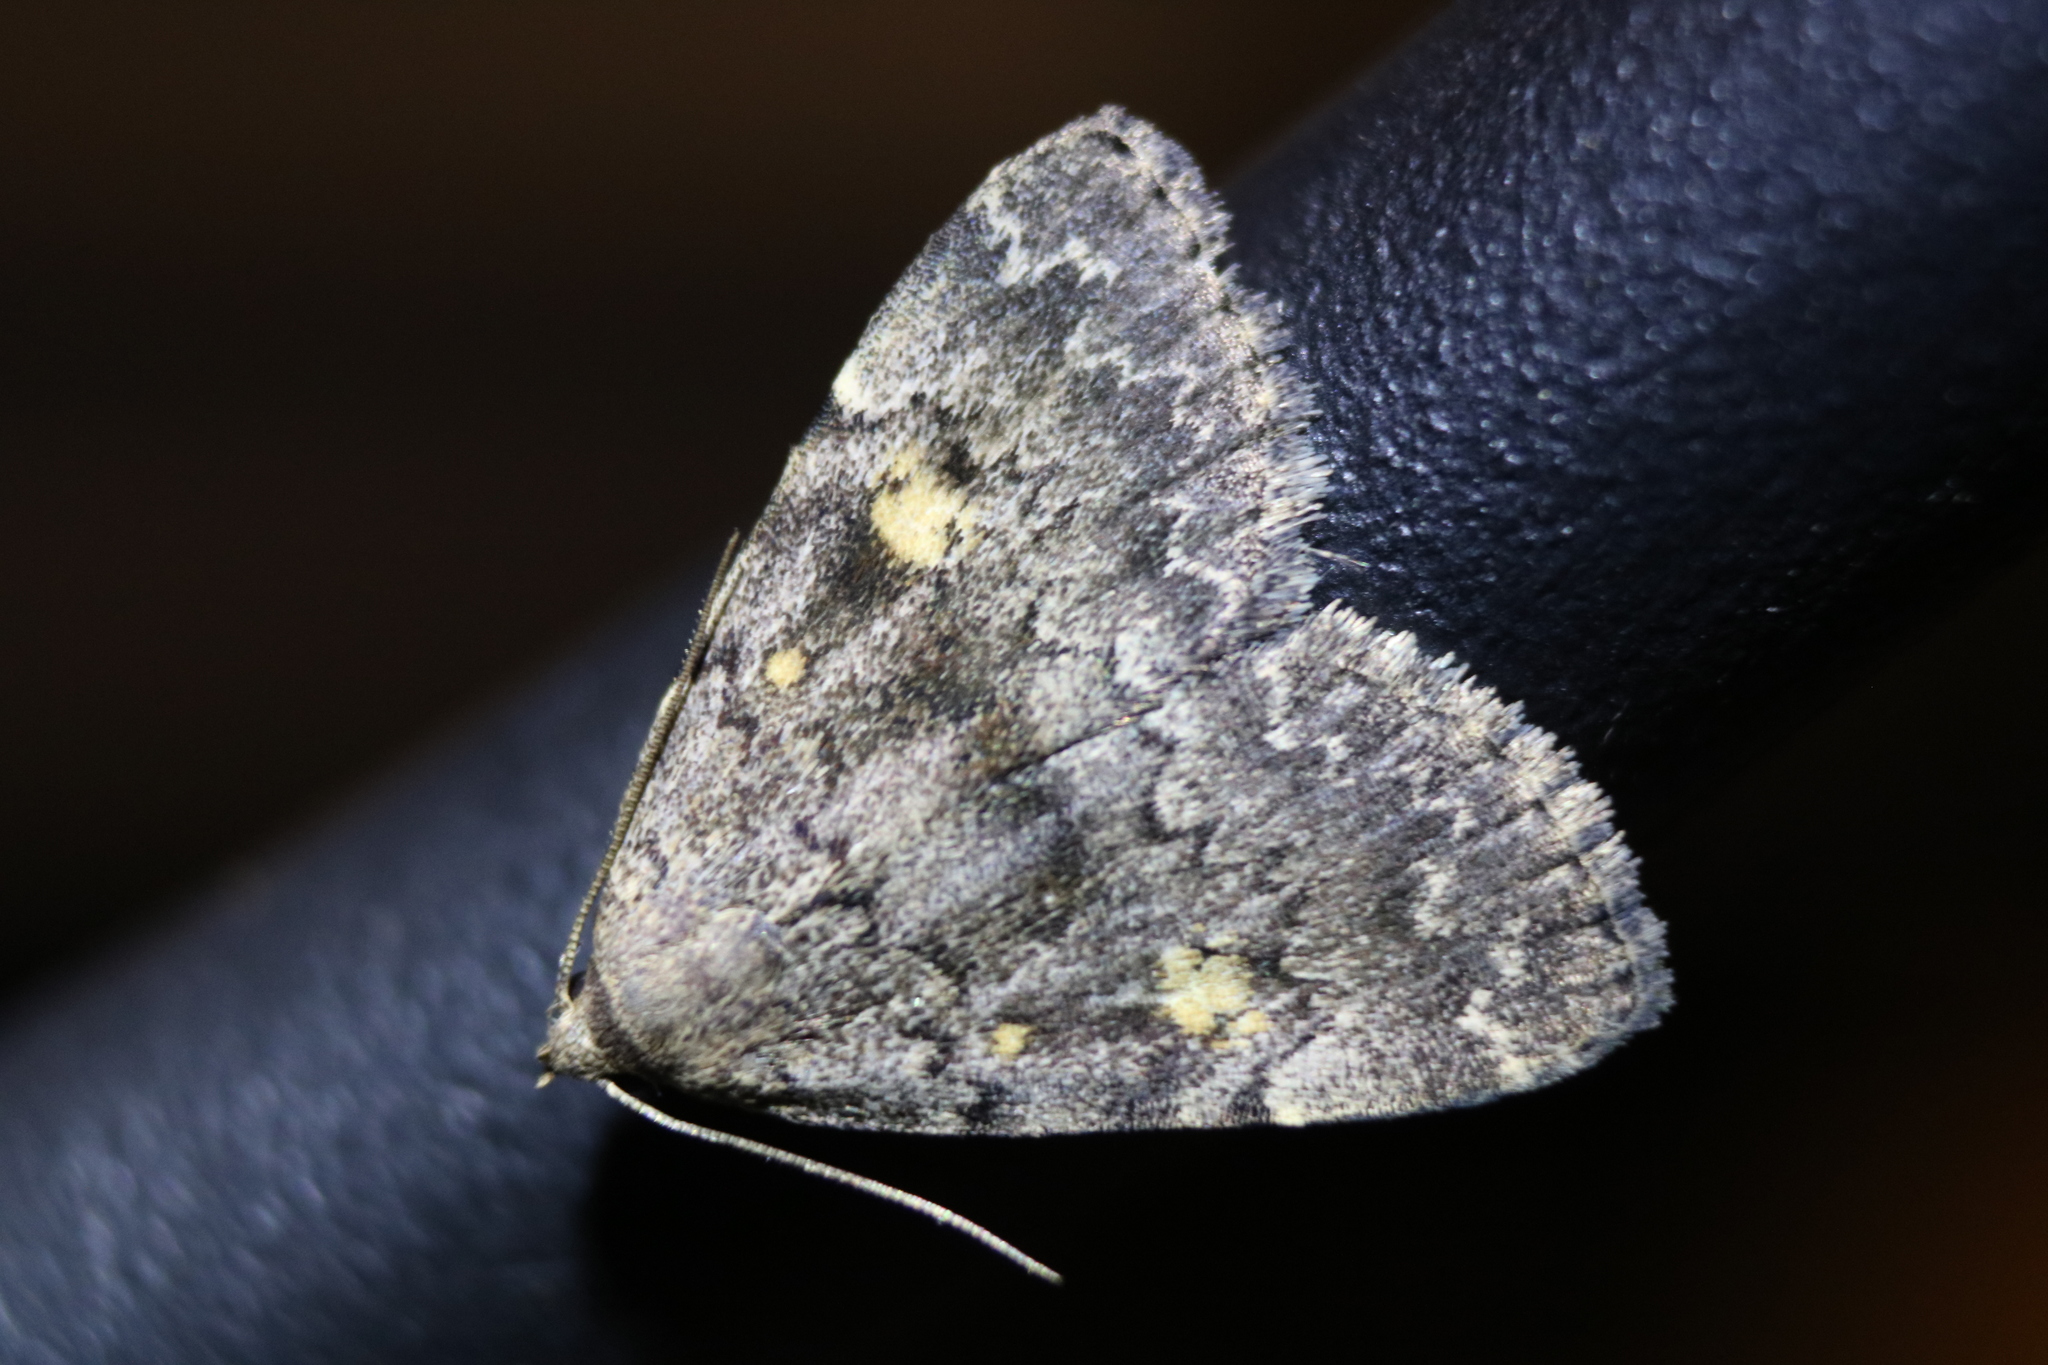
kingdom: Animalia
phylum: Arthropoda
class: Insecta
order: Lepidoptera
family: Erebidae
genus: Idia
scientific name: Idia aemula
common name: Common idia moth
